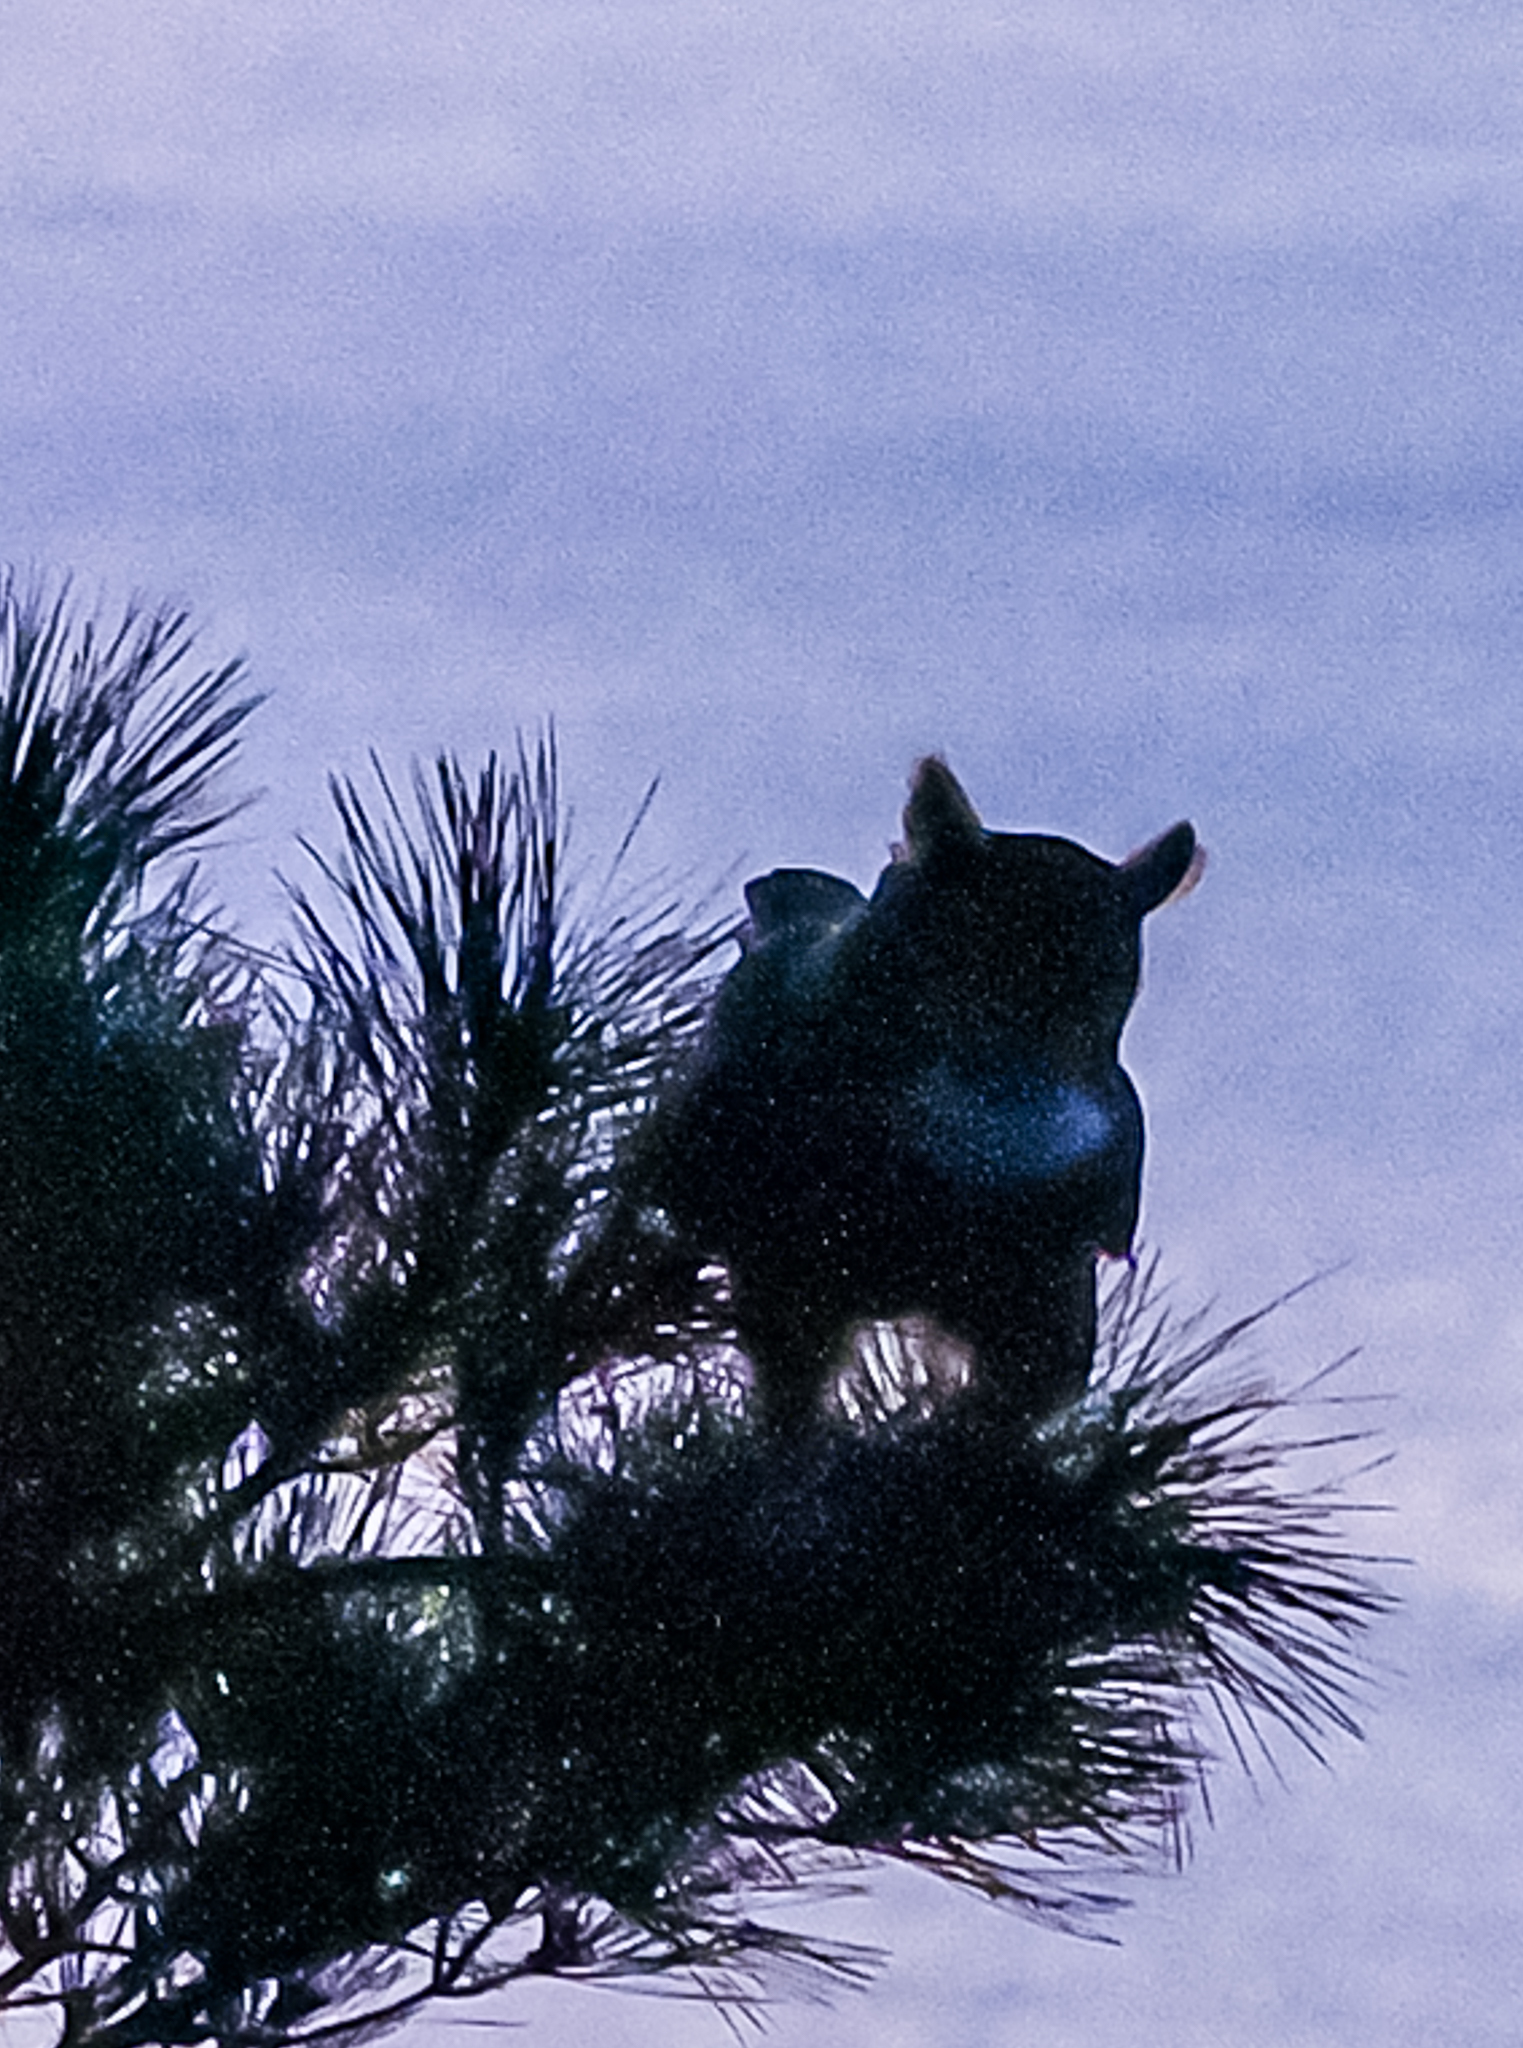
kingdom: Animalia
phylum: Chordata
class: Aves
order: Strigiformes
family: Strigidae
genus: Bubo
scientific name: Bubo virginianus
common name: Great horned owl
